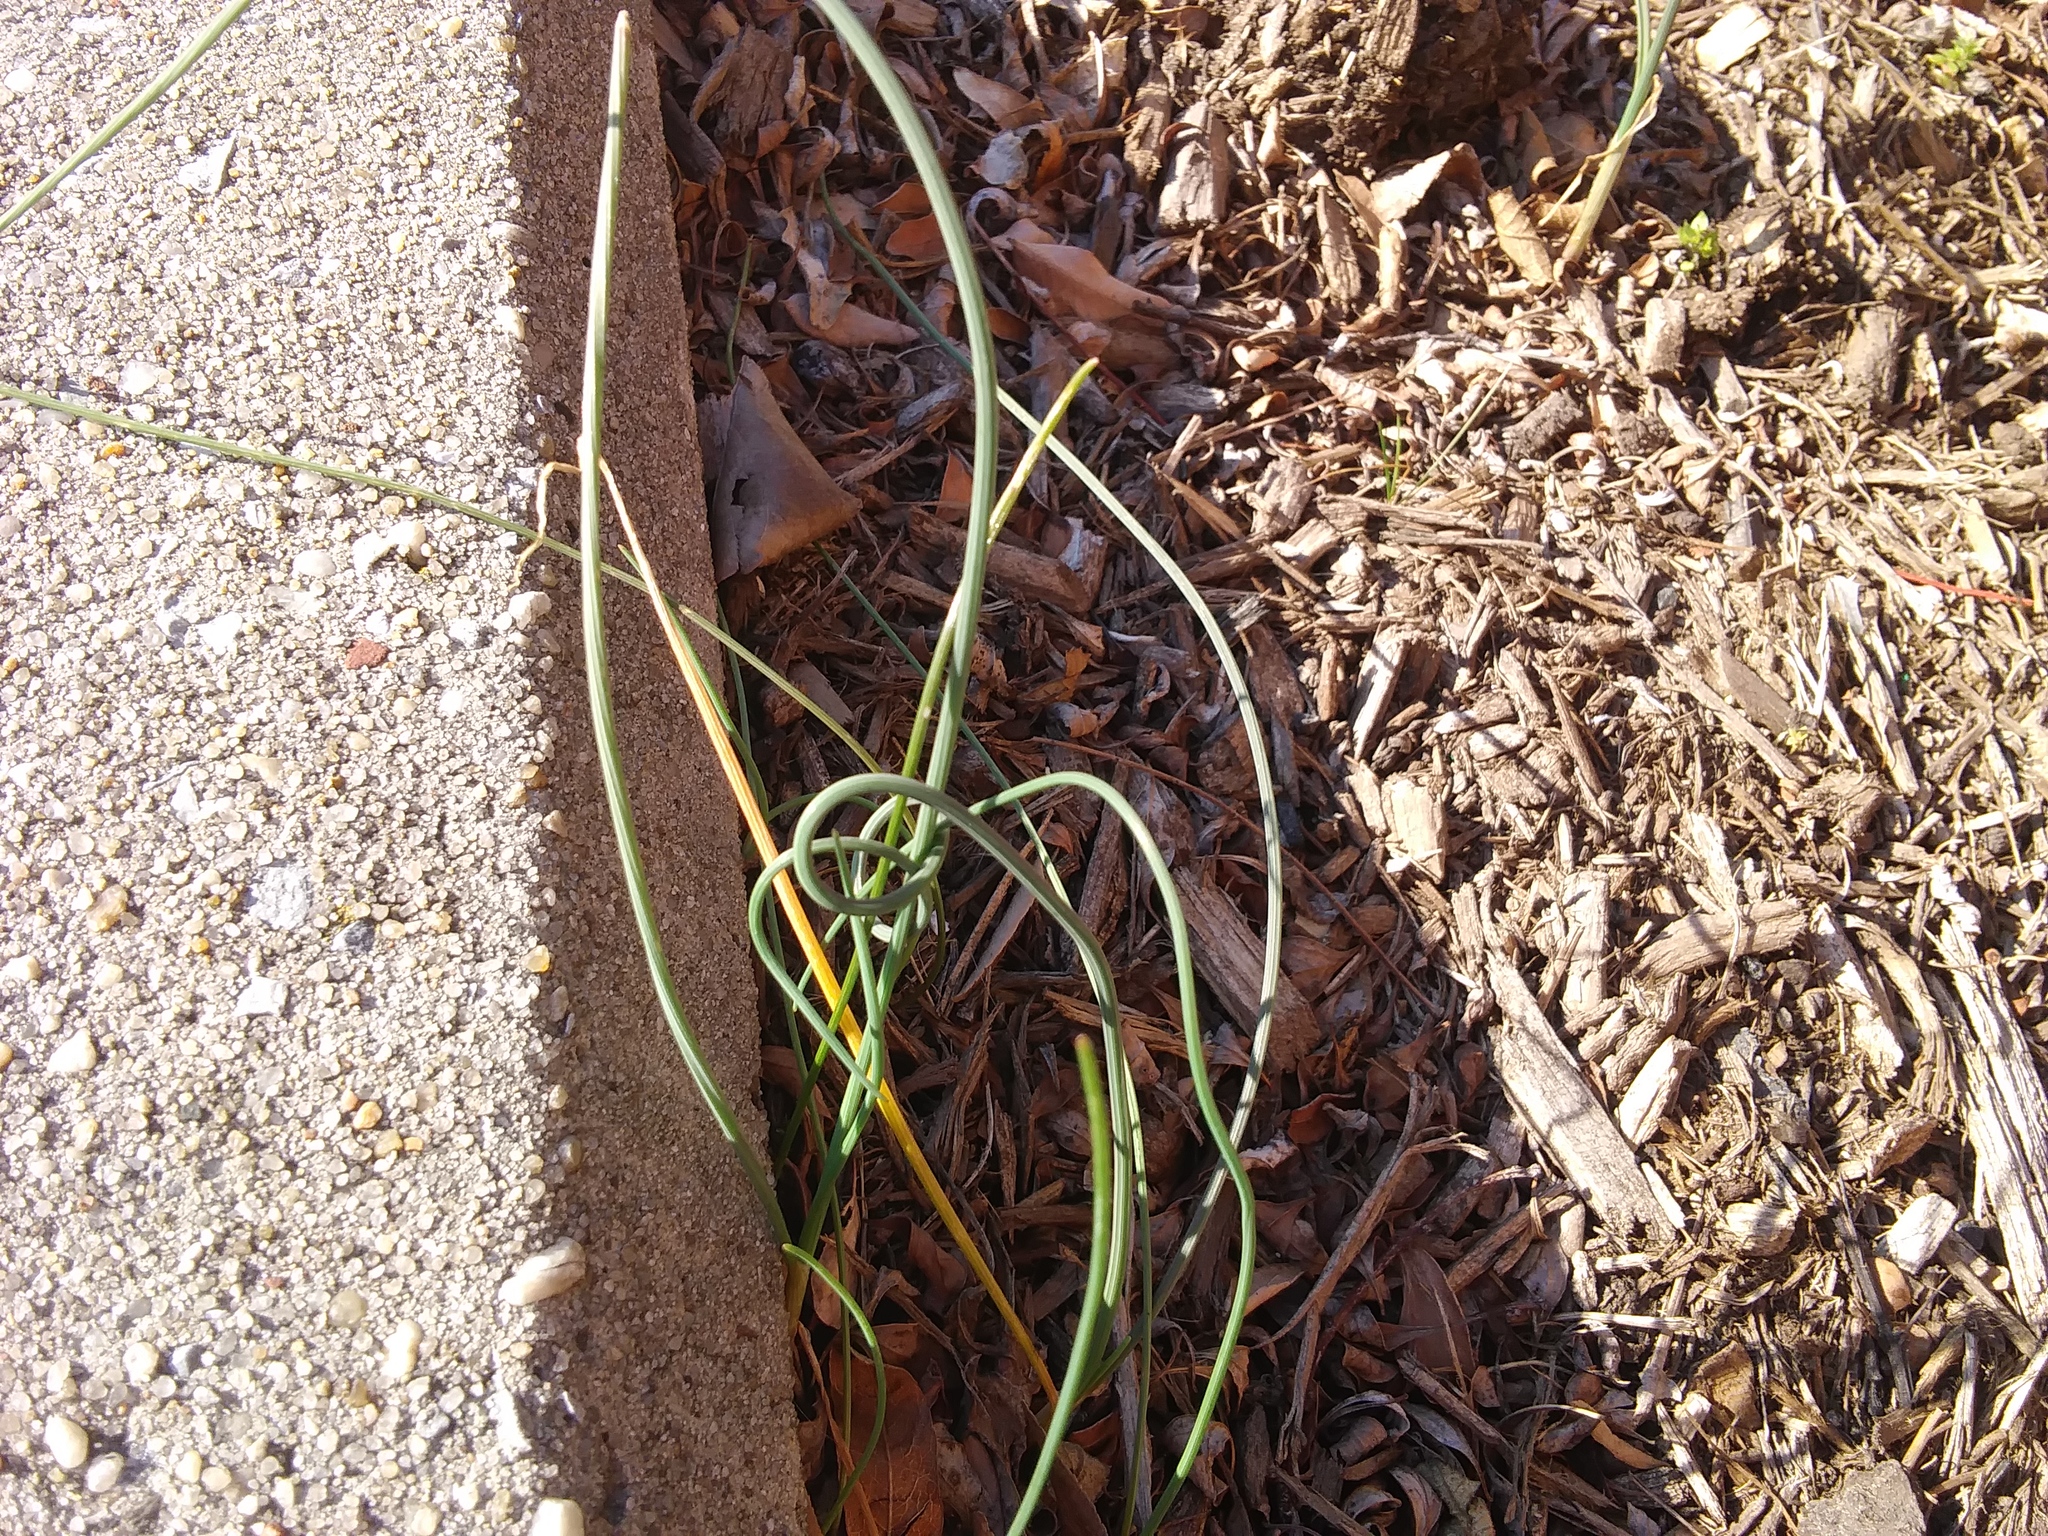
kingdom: Plantae
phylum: Tracheophyta
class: Liliopsida
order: Asparagales
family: Amaryllidaceae
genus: Allium
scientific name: Allium vineale
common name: Crow garlic
